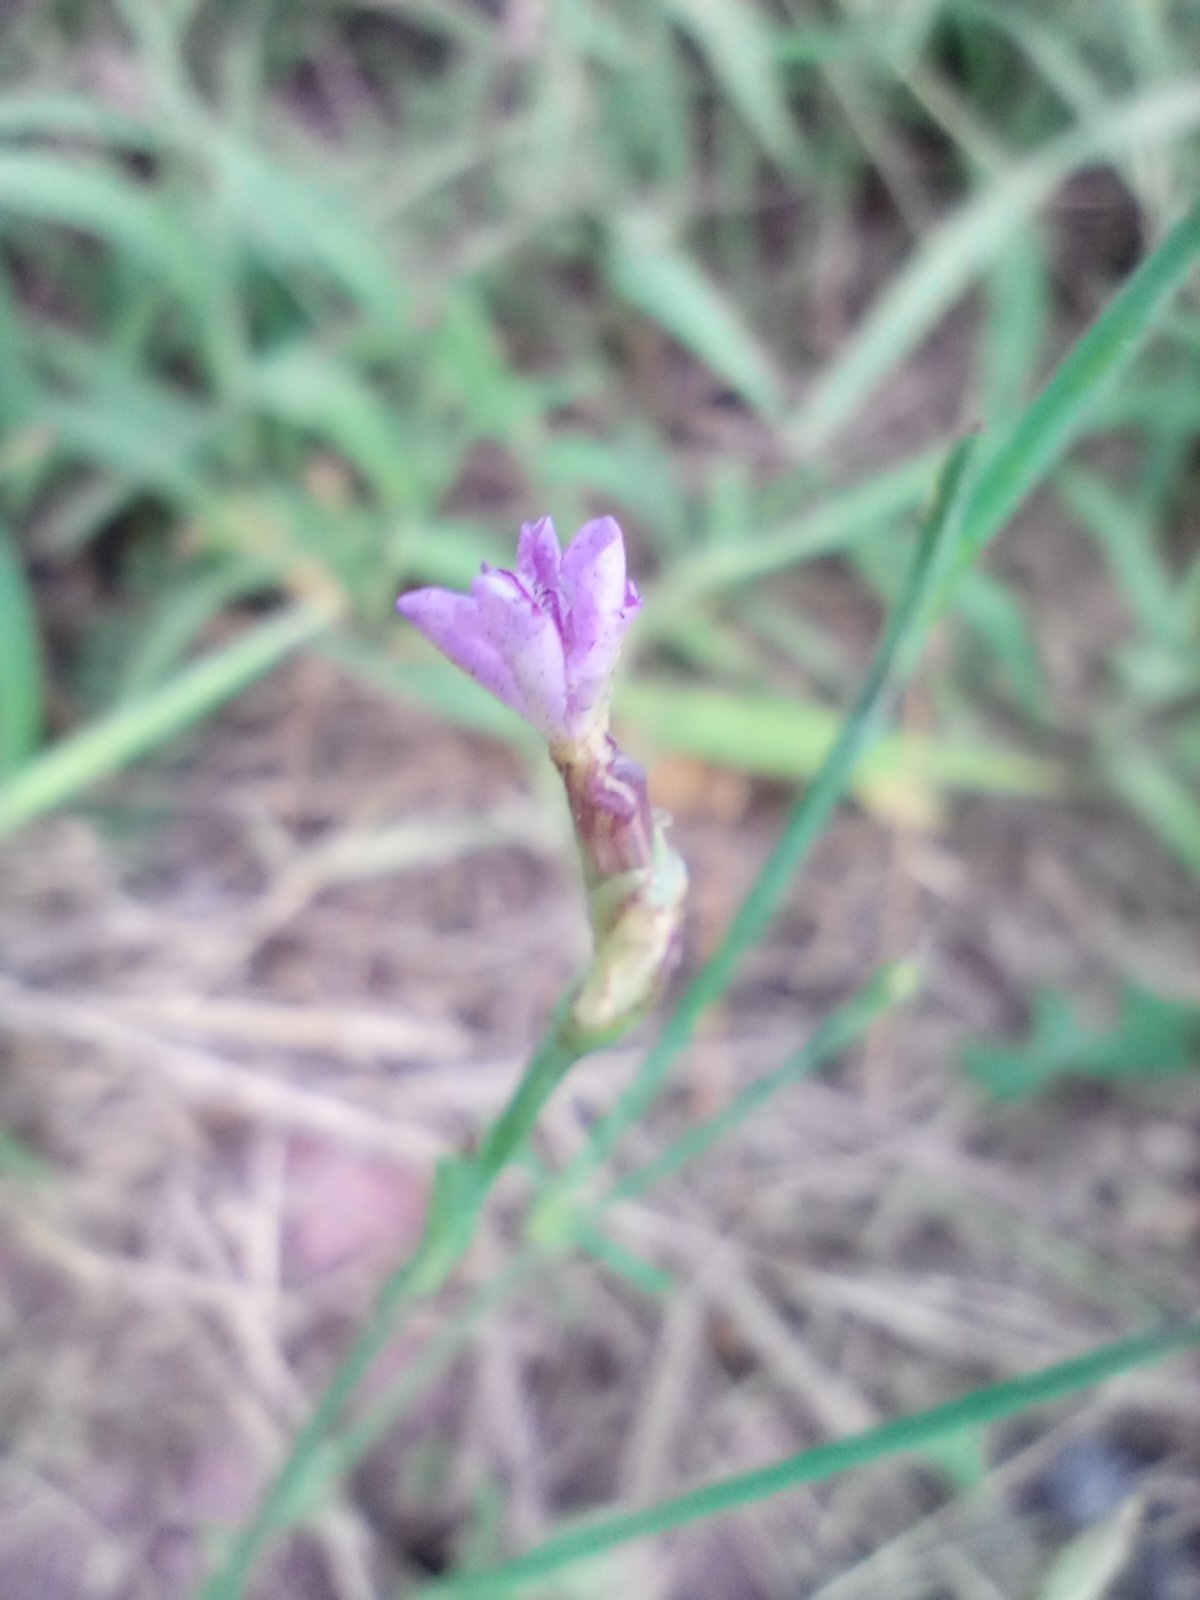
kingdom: Plantae
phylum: Tracheophyta
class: Magnoliopsida
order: Caryophyllales
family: Caryophyllaceae
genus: Petrorhagia
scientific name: Petrorhagia prolifera
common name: Proliferous pink
